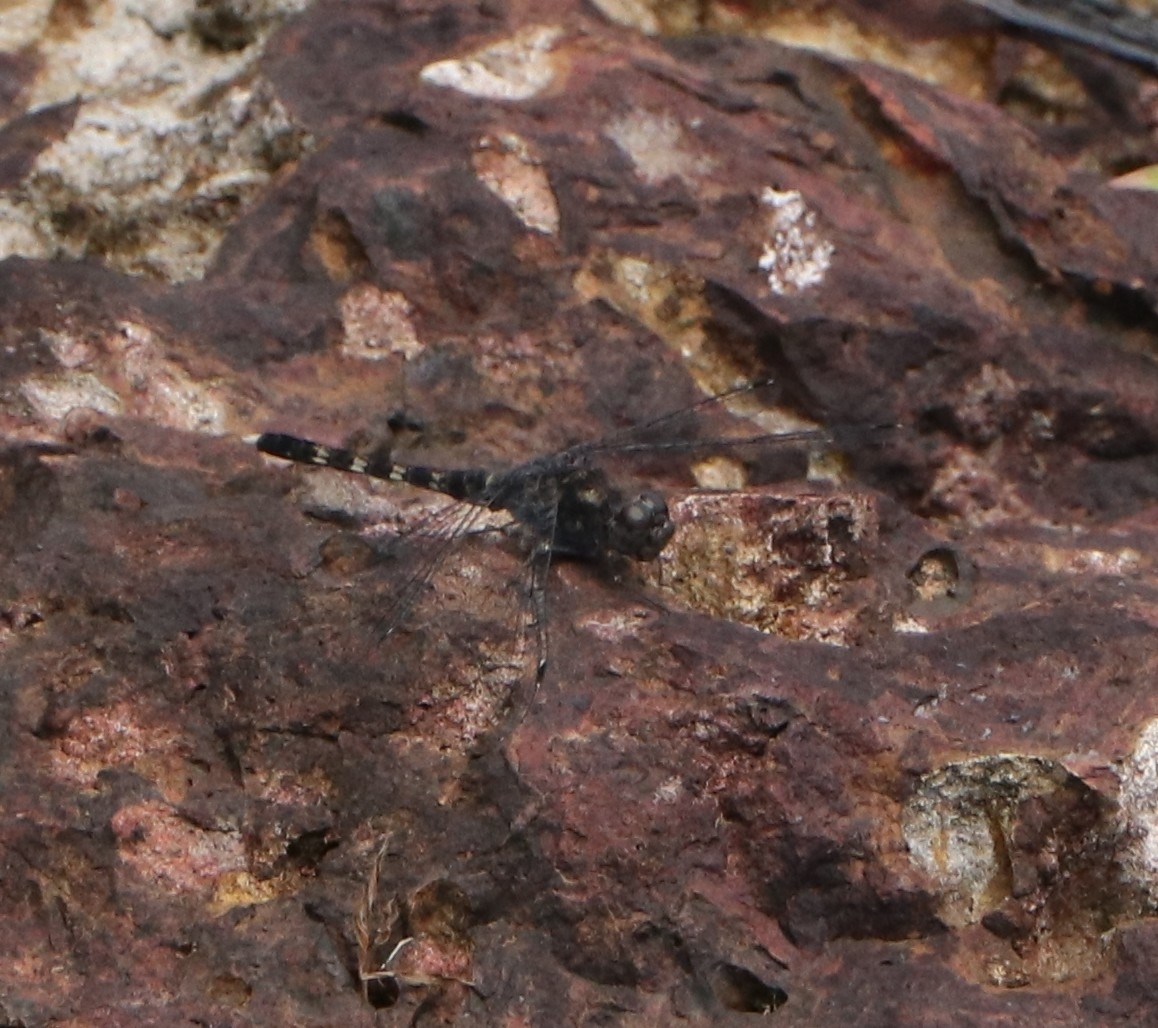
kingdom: Animalia
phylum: Arthropoda
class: Insecta
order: Odonata
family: Libellulidae
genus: Bradinopyga
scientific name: Bradinopyga geminata
